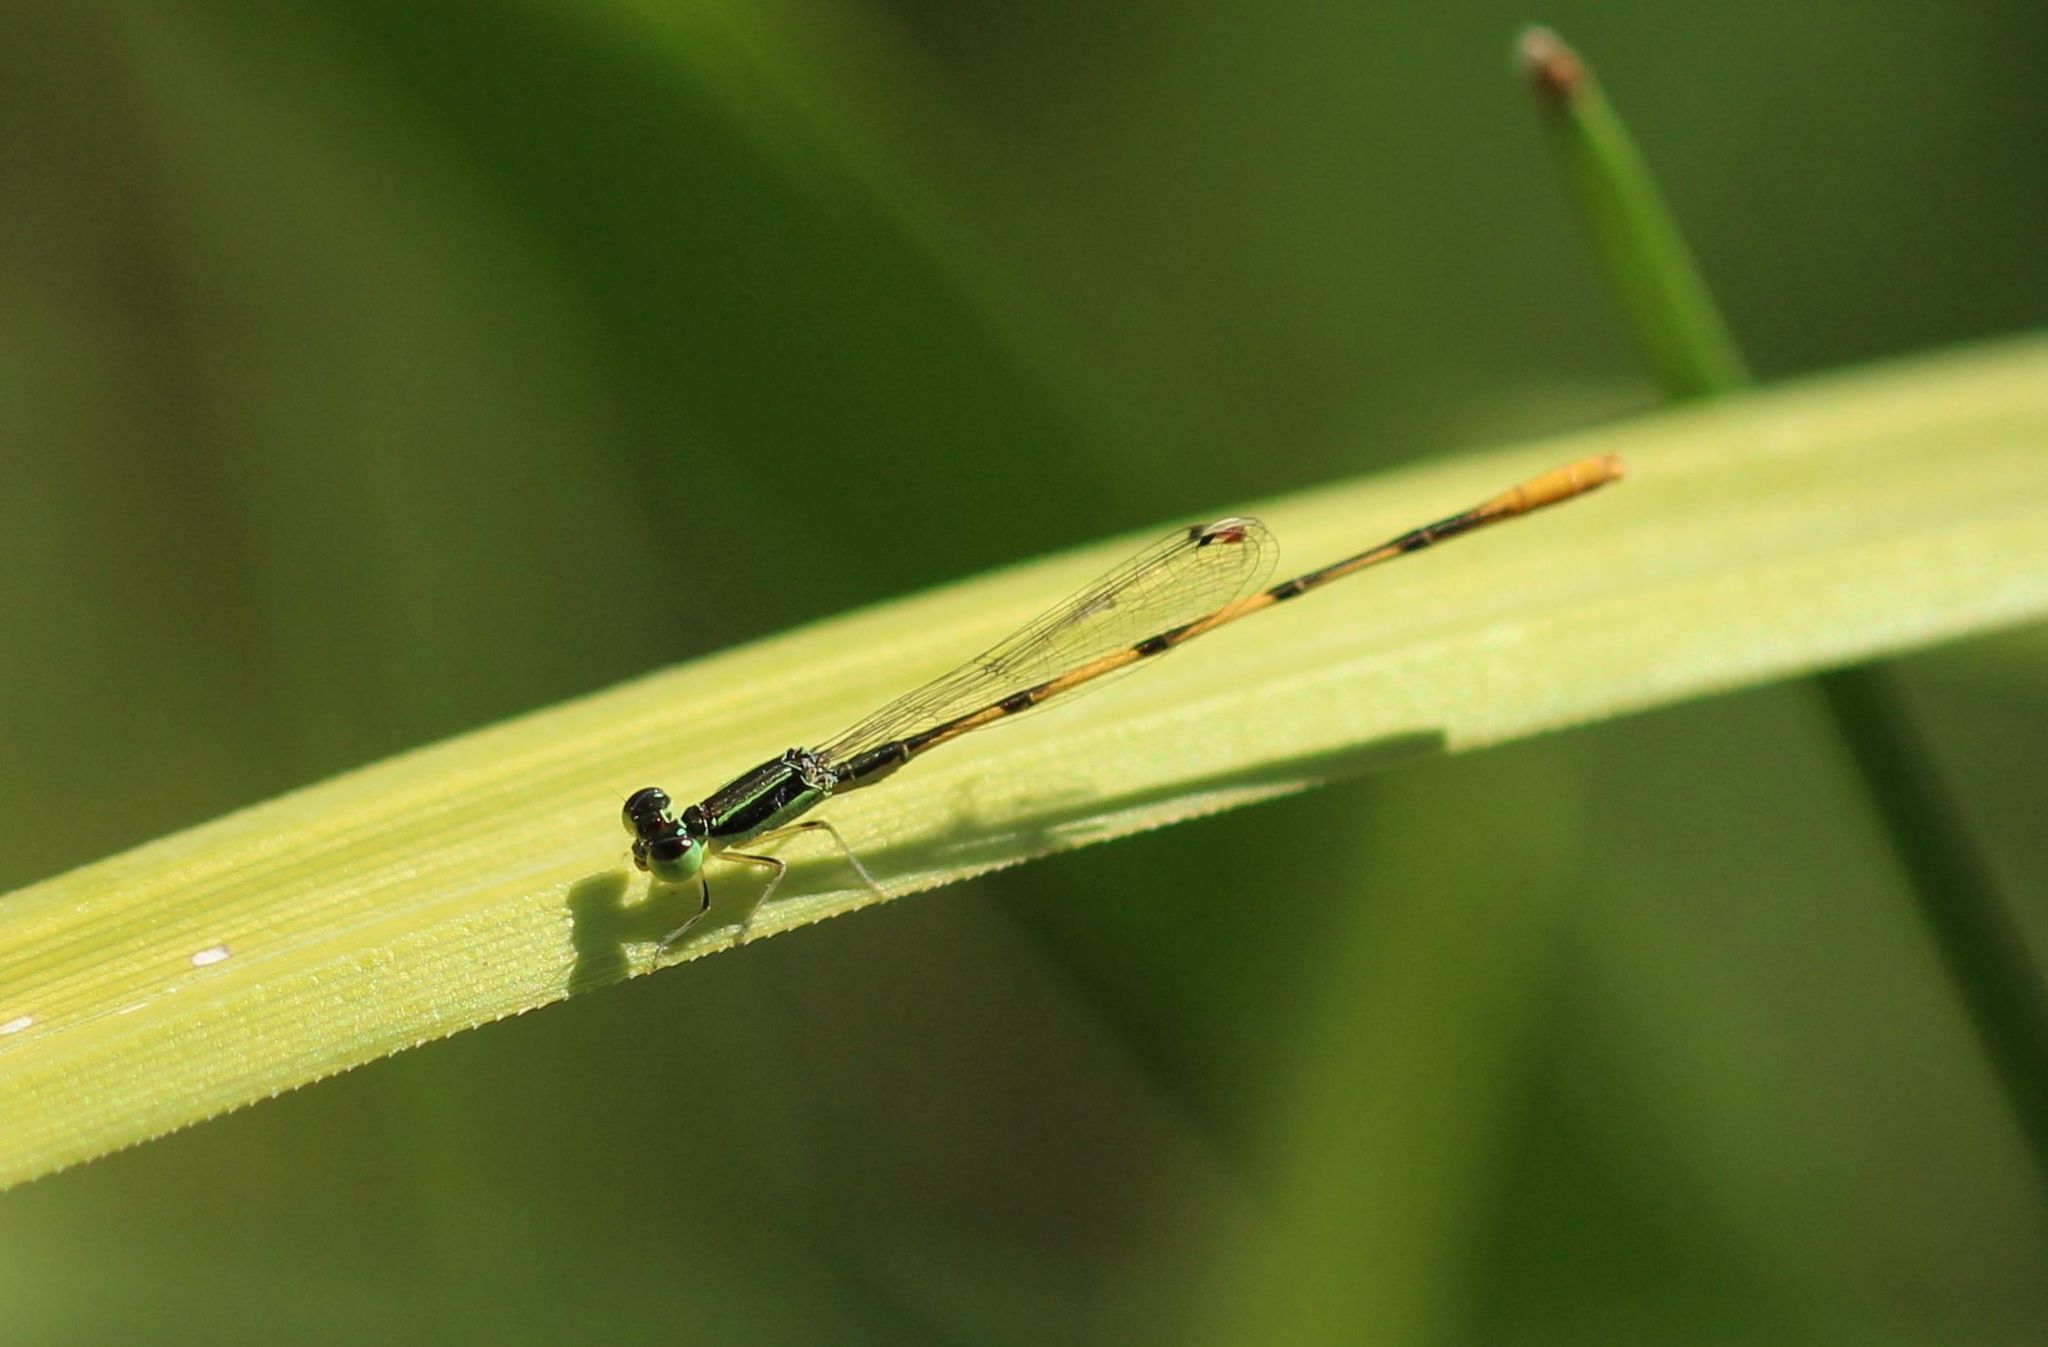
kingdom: Animalia
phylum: Arthropoda
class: Insecta
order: Odonata
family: Coenagrionidae
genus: Ischnura
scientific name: Ischnura hastata
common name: Citrine forktail
